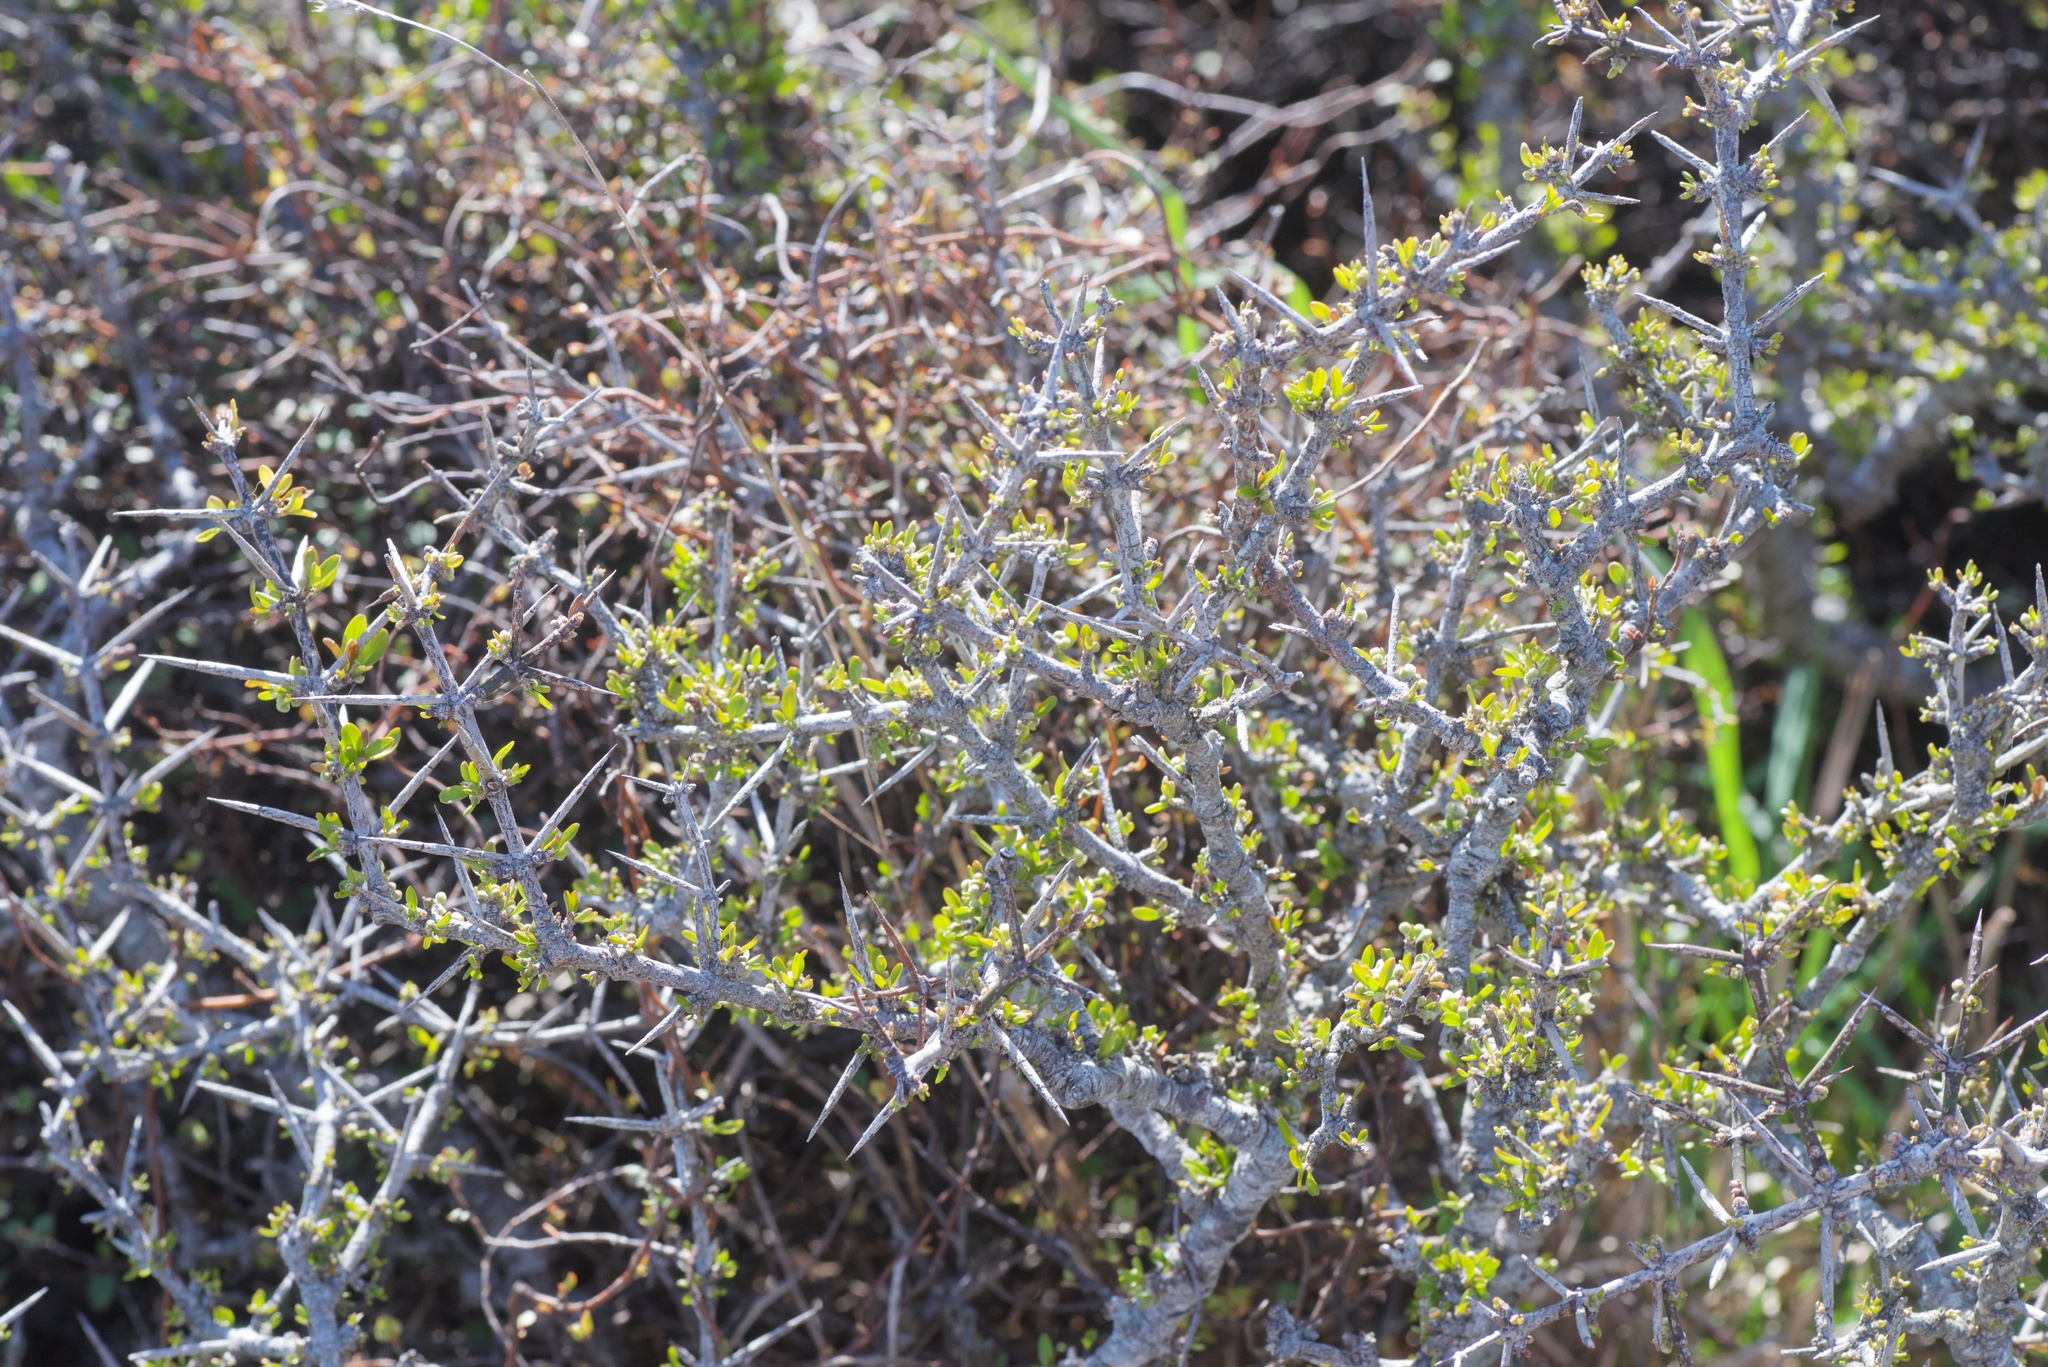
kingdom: Plantae
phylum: Tracheophyta
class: Magnoliopsida
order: Rosales
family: Rhamnaceae
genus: Discaria
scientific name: Discaria toumatou
